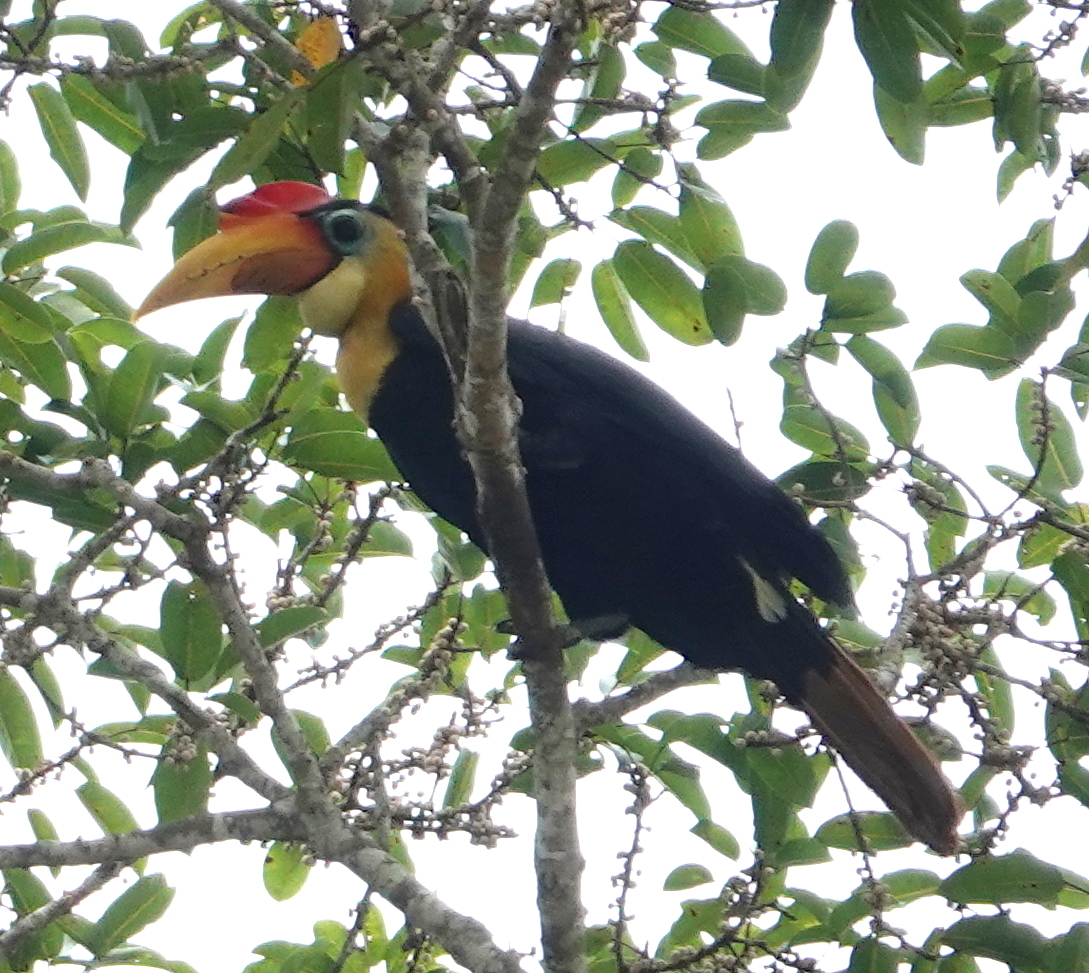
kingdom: Animalia
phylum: Chordata
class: Aves
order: Bucerotiformes
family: Bucerotidae
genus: Rhabdotorrhinus
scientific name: Rhabdotorrhinus corrugatus
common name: Wrinkled hornbill
